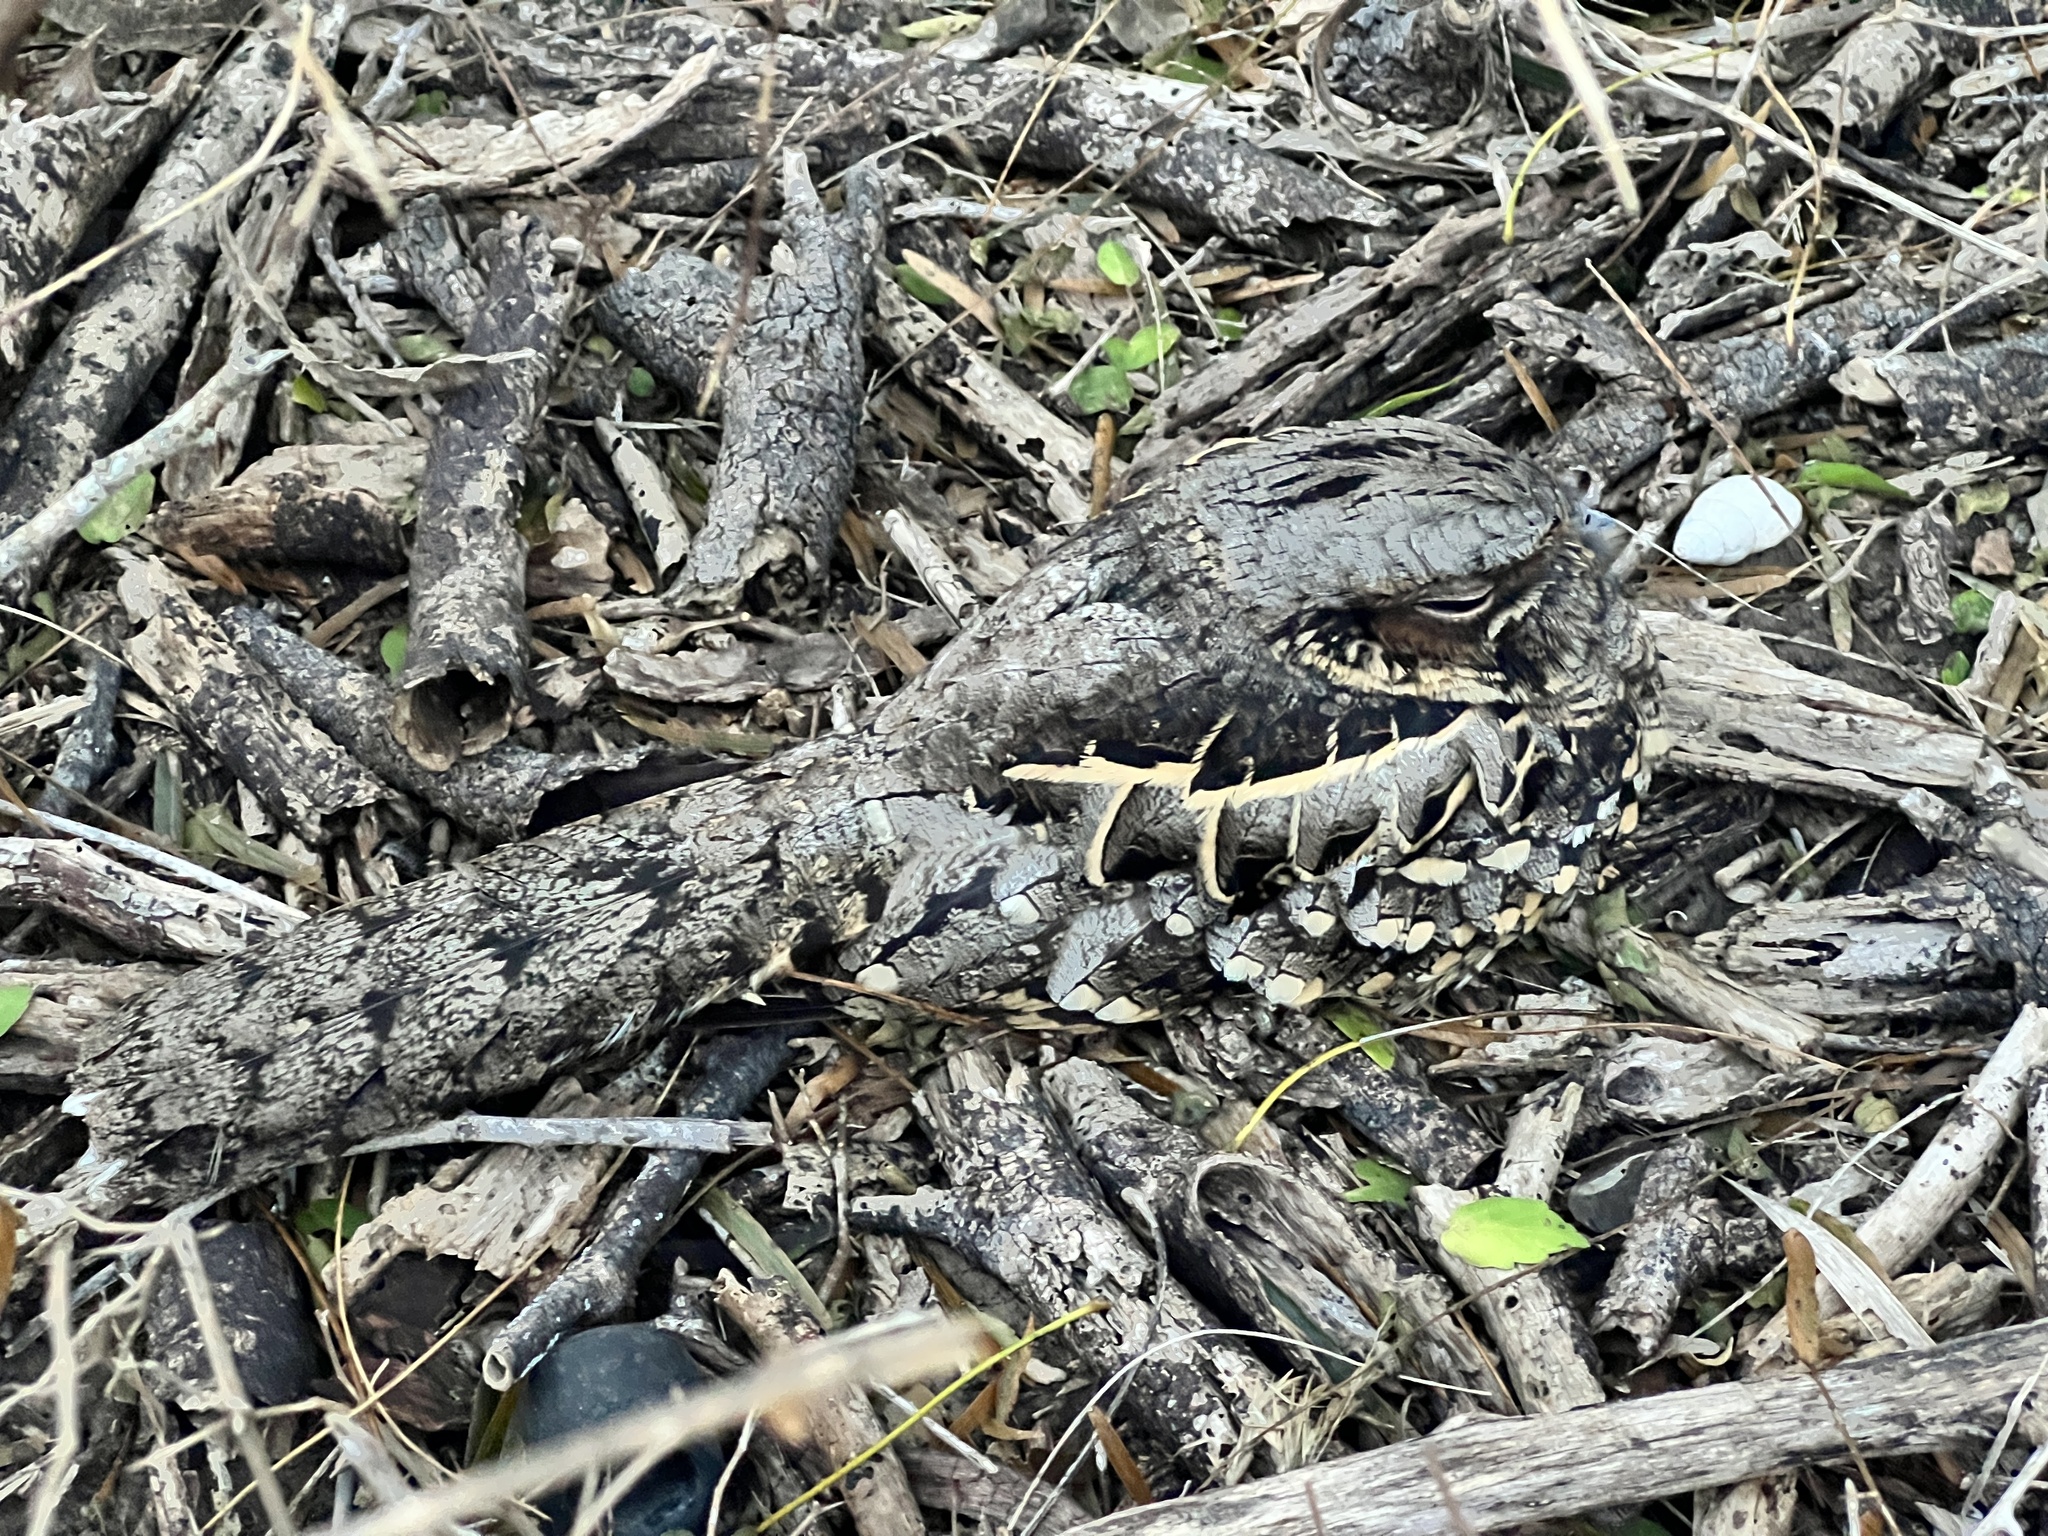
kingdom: Animalia
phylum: Chordata
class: Aves
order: Caprimulgiformes
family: Caprimulgidae
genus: Nyctidromus
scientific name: Nyctidromus albicollis
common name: Pauraque
